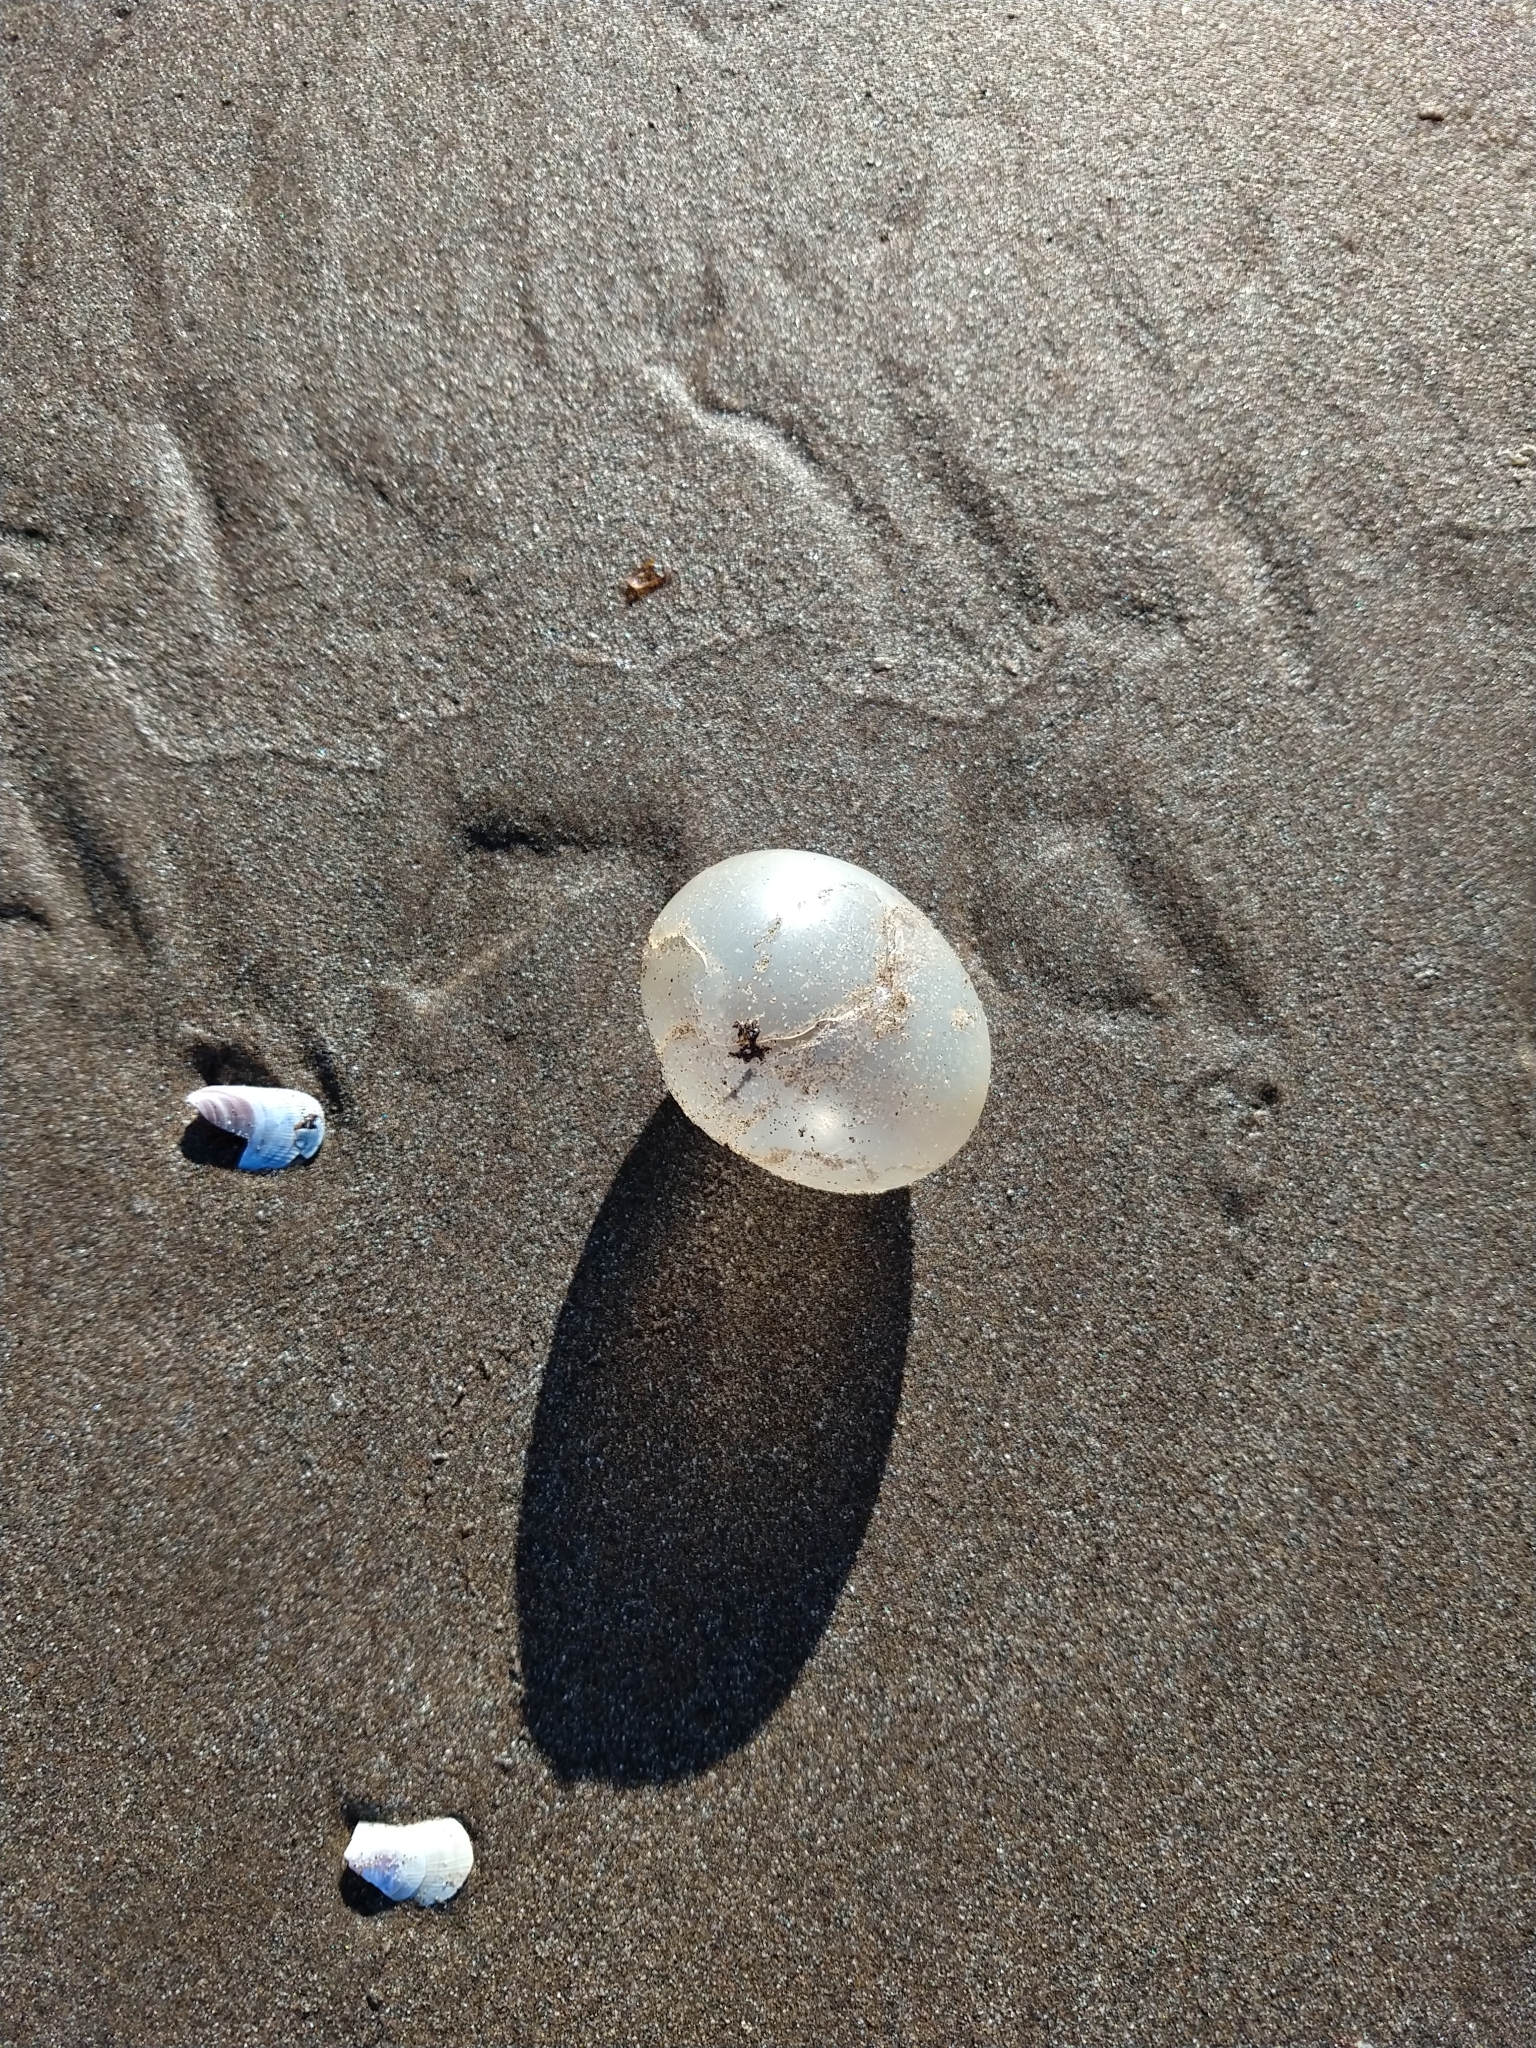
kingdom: Animalia
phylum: Mollusca
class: Gastropoda
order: Neogastropoda
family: Volutidae
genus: Pachycymbiola
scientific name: Pachycymbiola brasiliana
